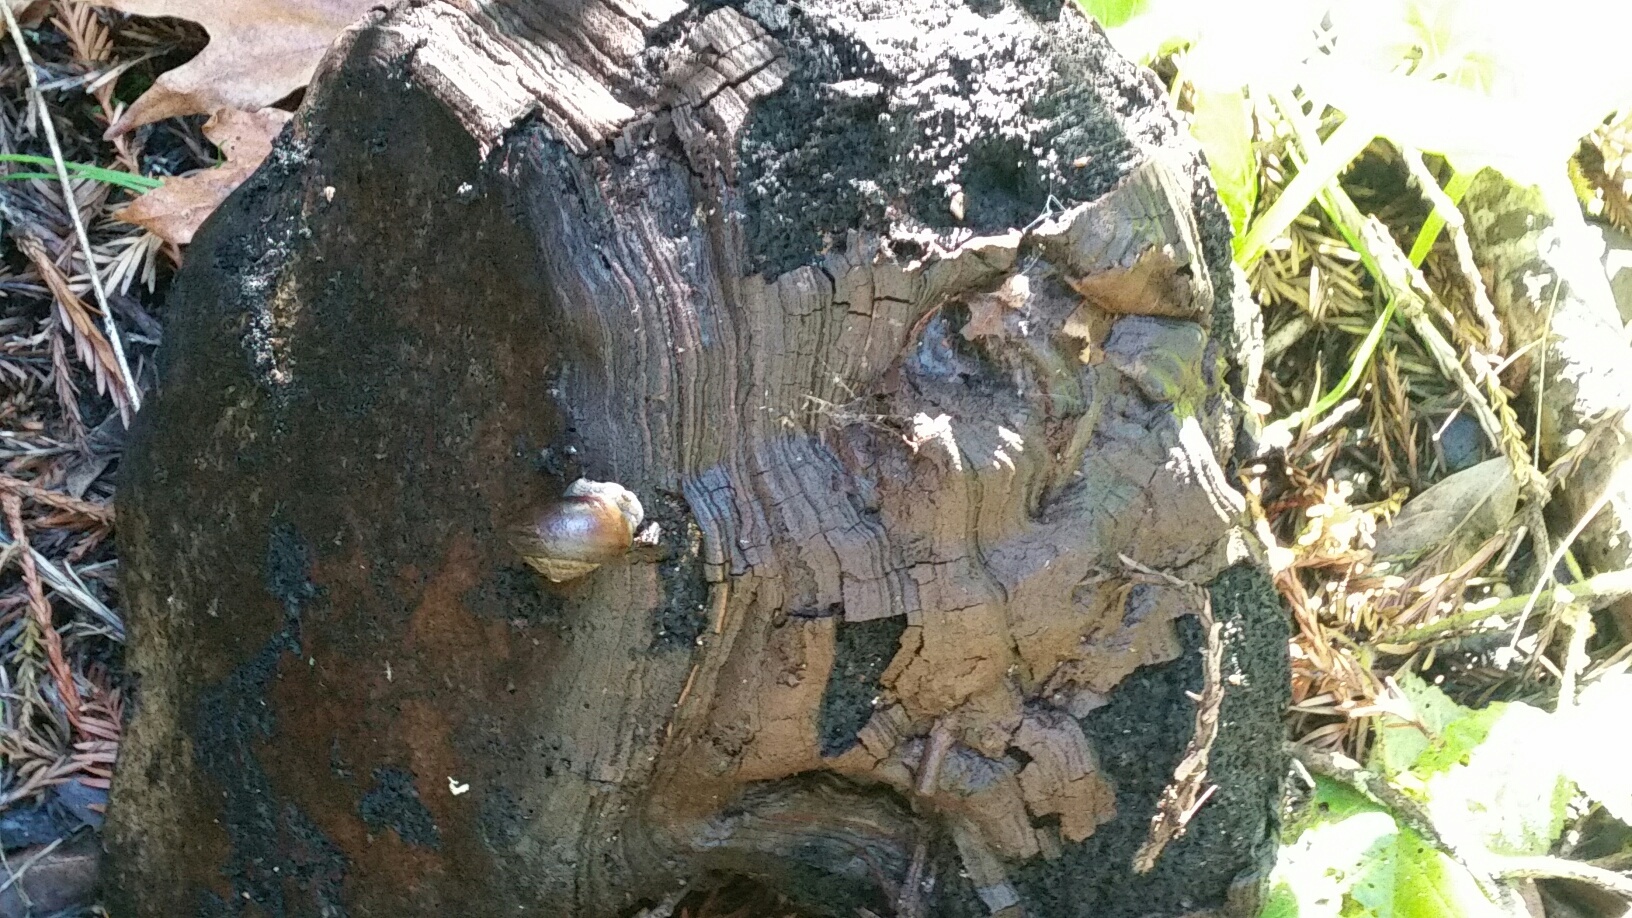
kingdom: Animalia
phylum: Mollusca
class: Gastropoda
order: Stylommatophora
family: Xanthonychidae
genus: Helminthoglypta
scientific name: Helminthoglypta nickliniana
